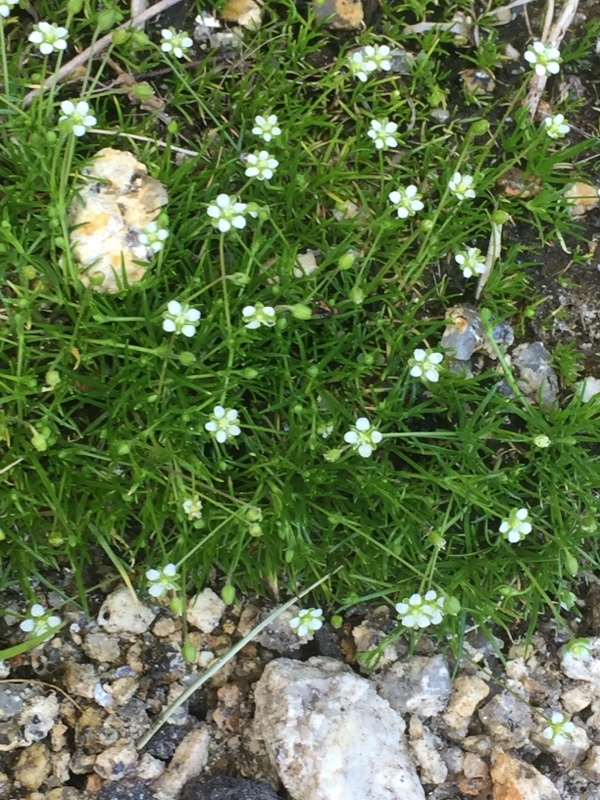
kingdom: Plantae
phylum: Tracheophyta
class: Magnoliopsida
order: Caryophyllales
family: Caryophyllaceae
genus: Sagina
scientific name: Sagina saginoides
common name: Alpine pearlwort
